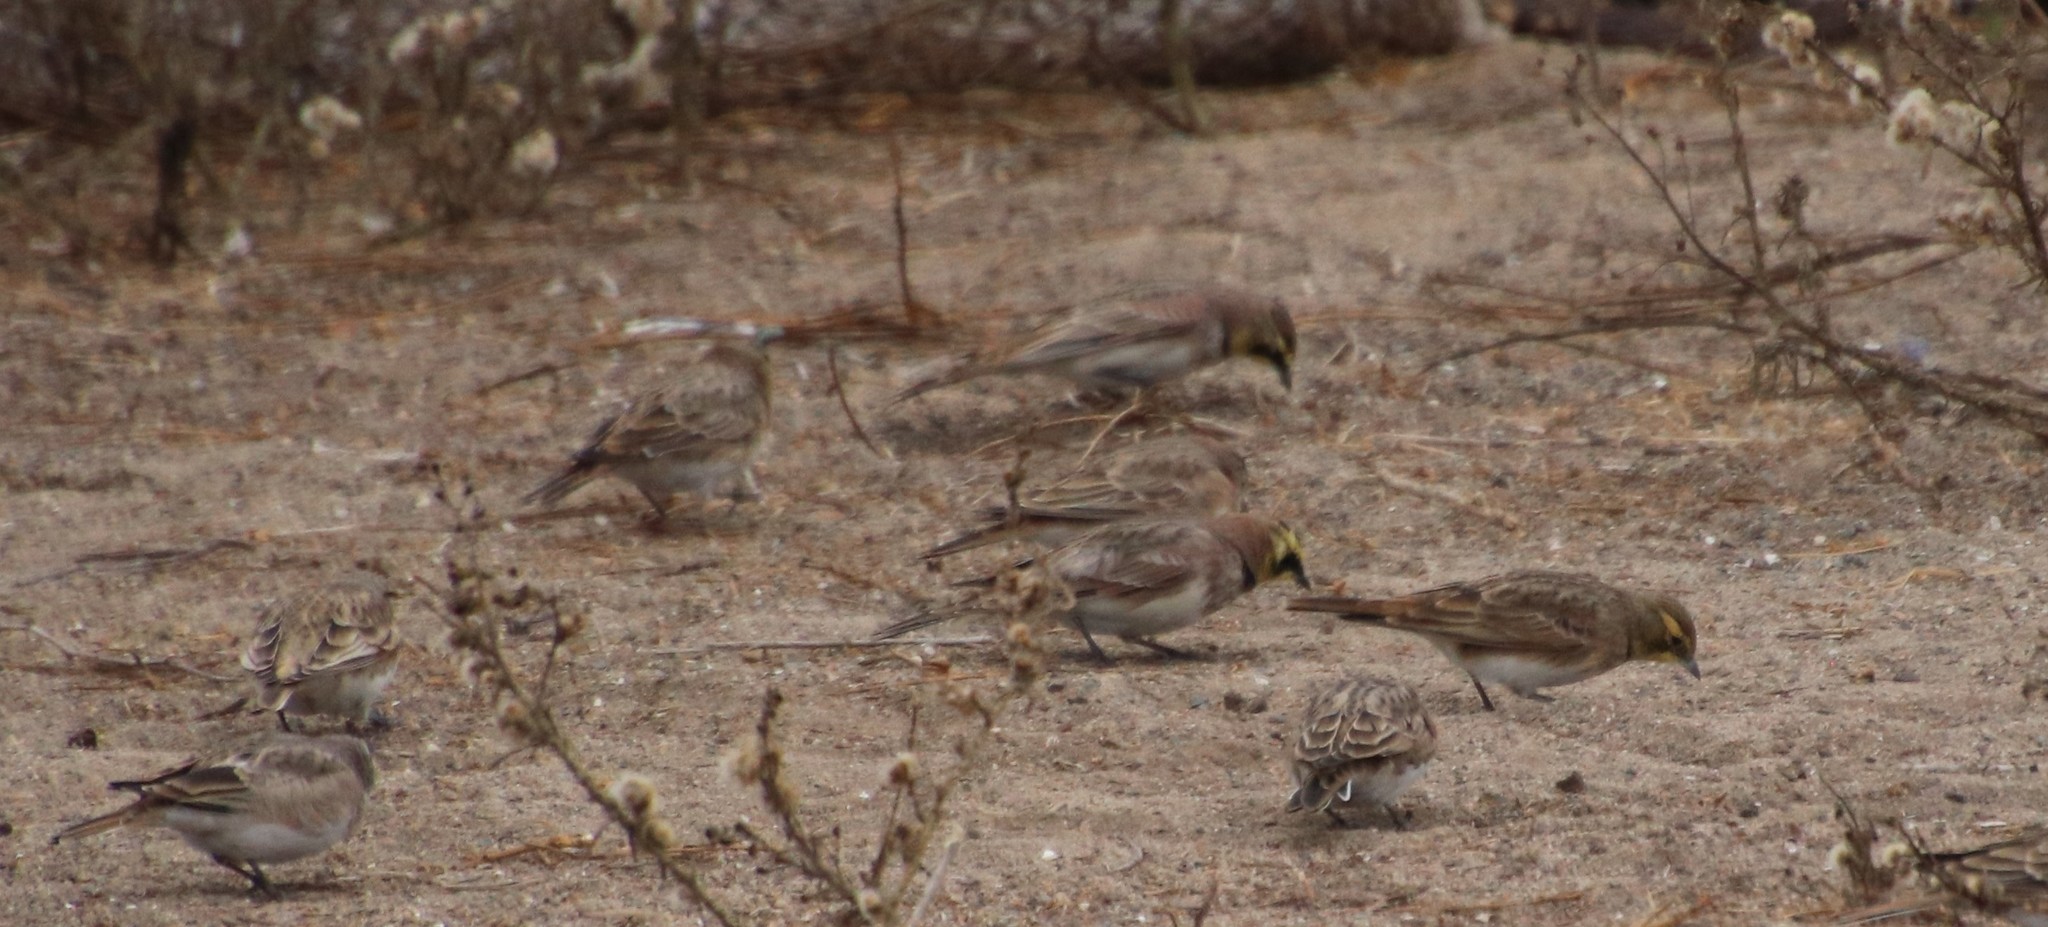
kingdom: Animalia
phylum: Chordata
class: Aves
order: Passeriformes
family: Alaudidae
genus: Eremophila
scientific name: Eremophila alpestris
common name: Horned lark
